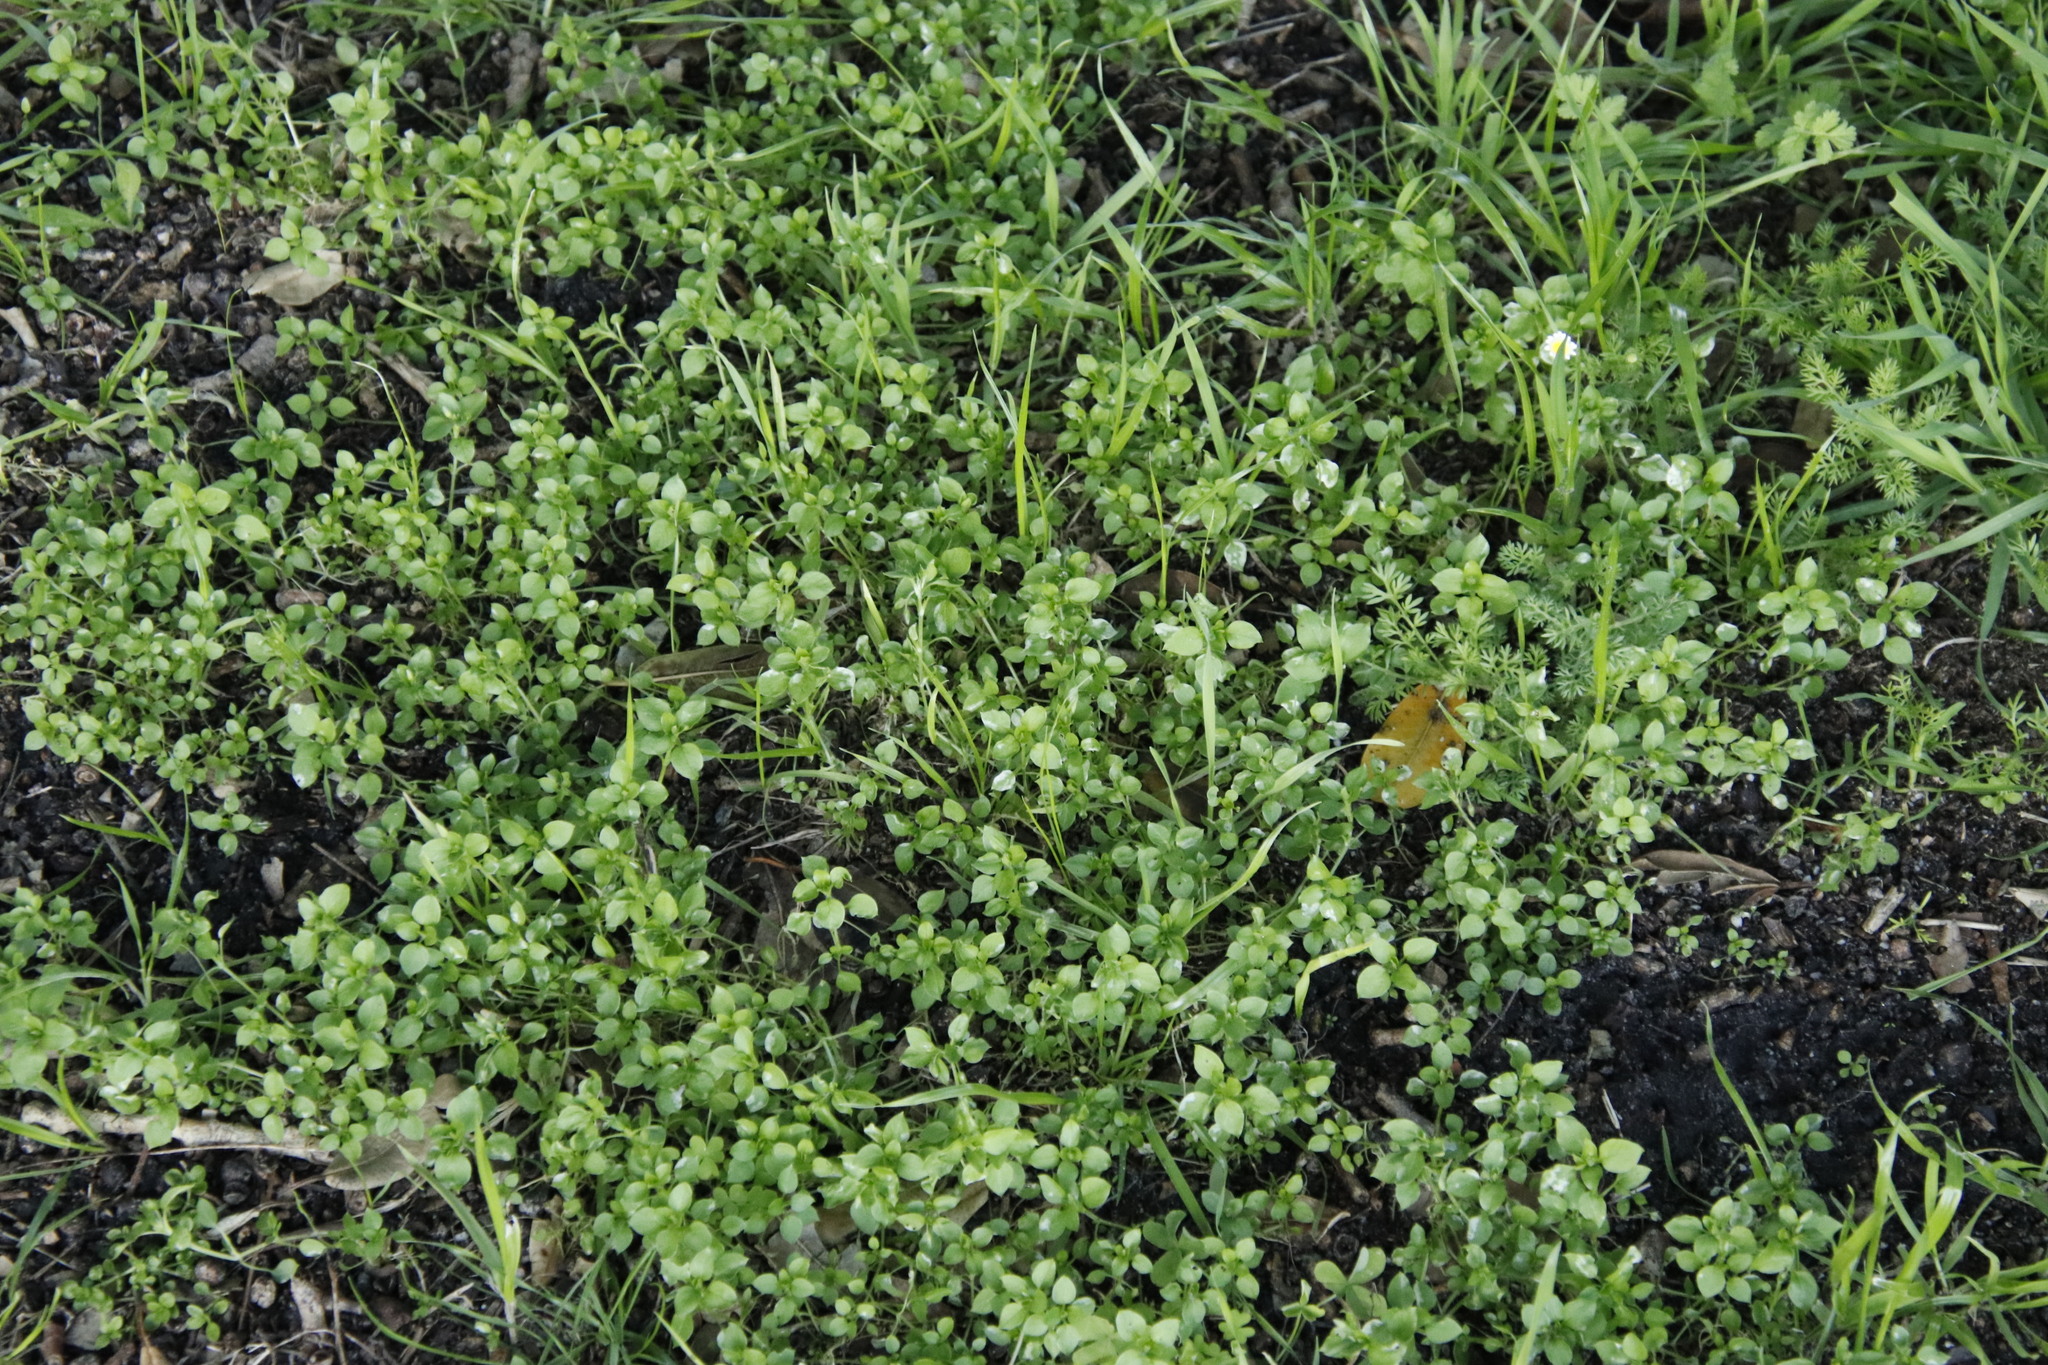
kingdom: Plantae
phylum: Tracheophyta
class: Magnoliopsida
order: Caryophyllales
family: Caryophyllaceae
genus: Stellaria
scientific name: Stellaria media
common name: Common chickweed
